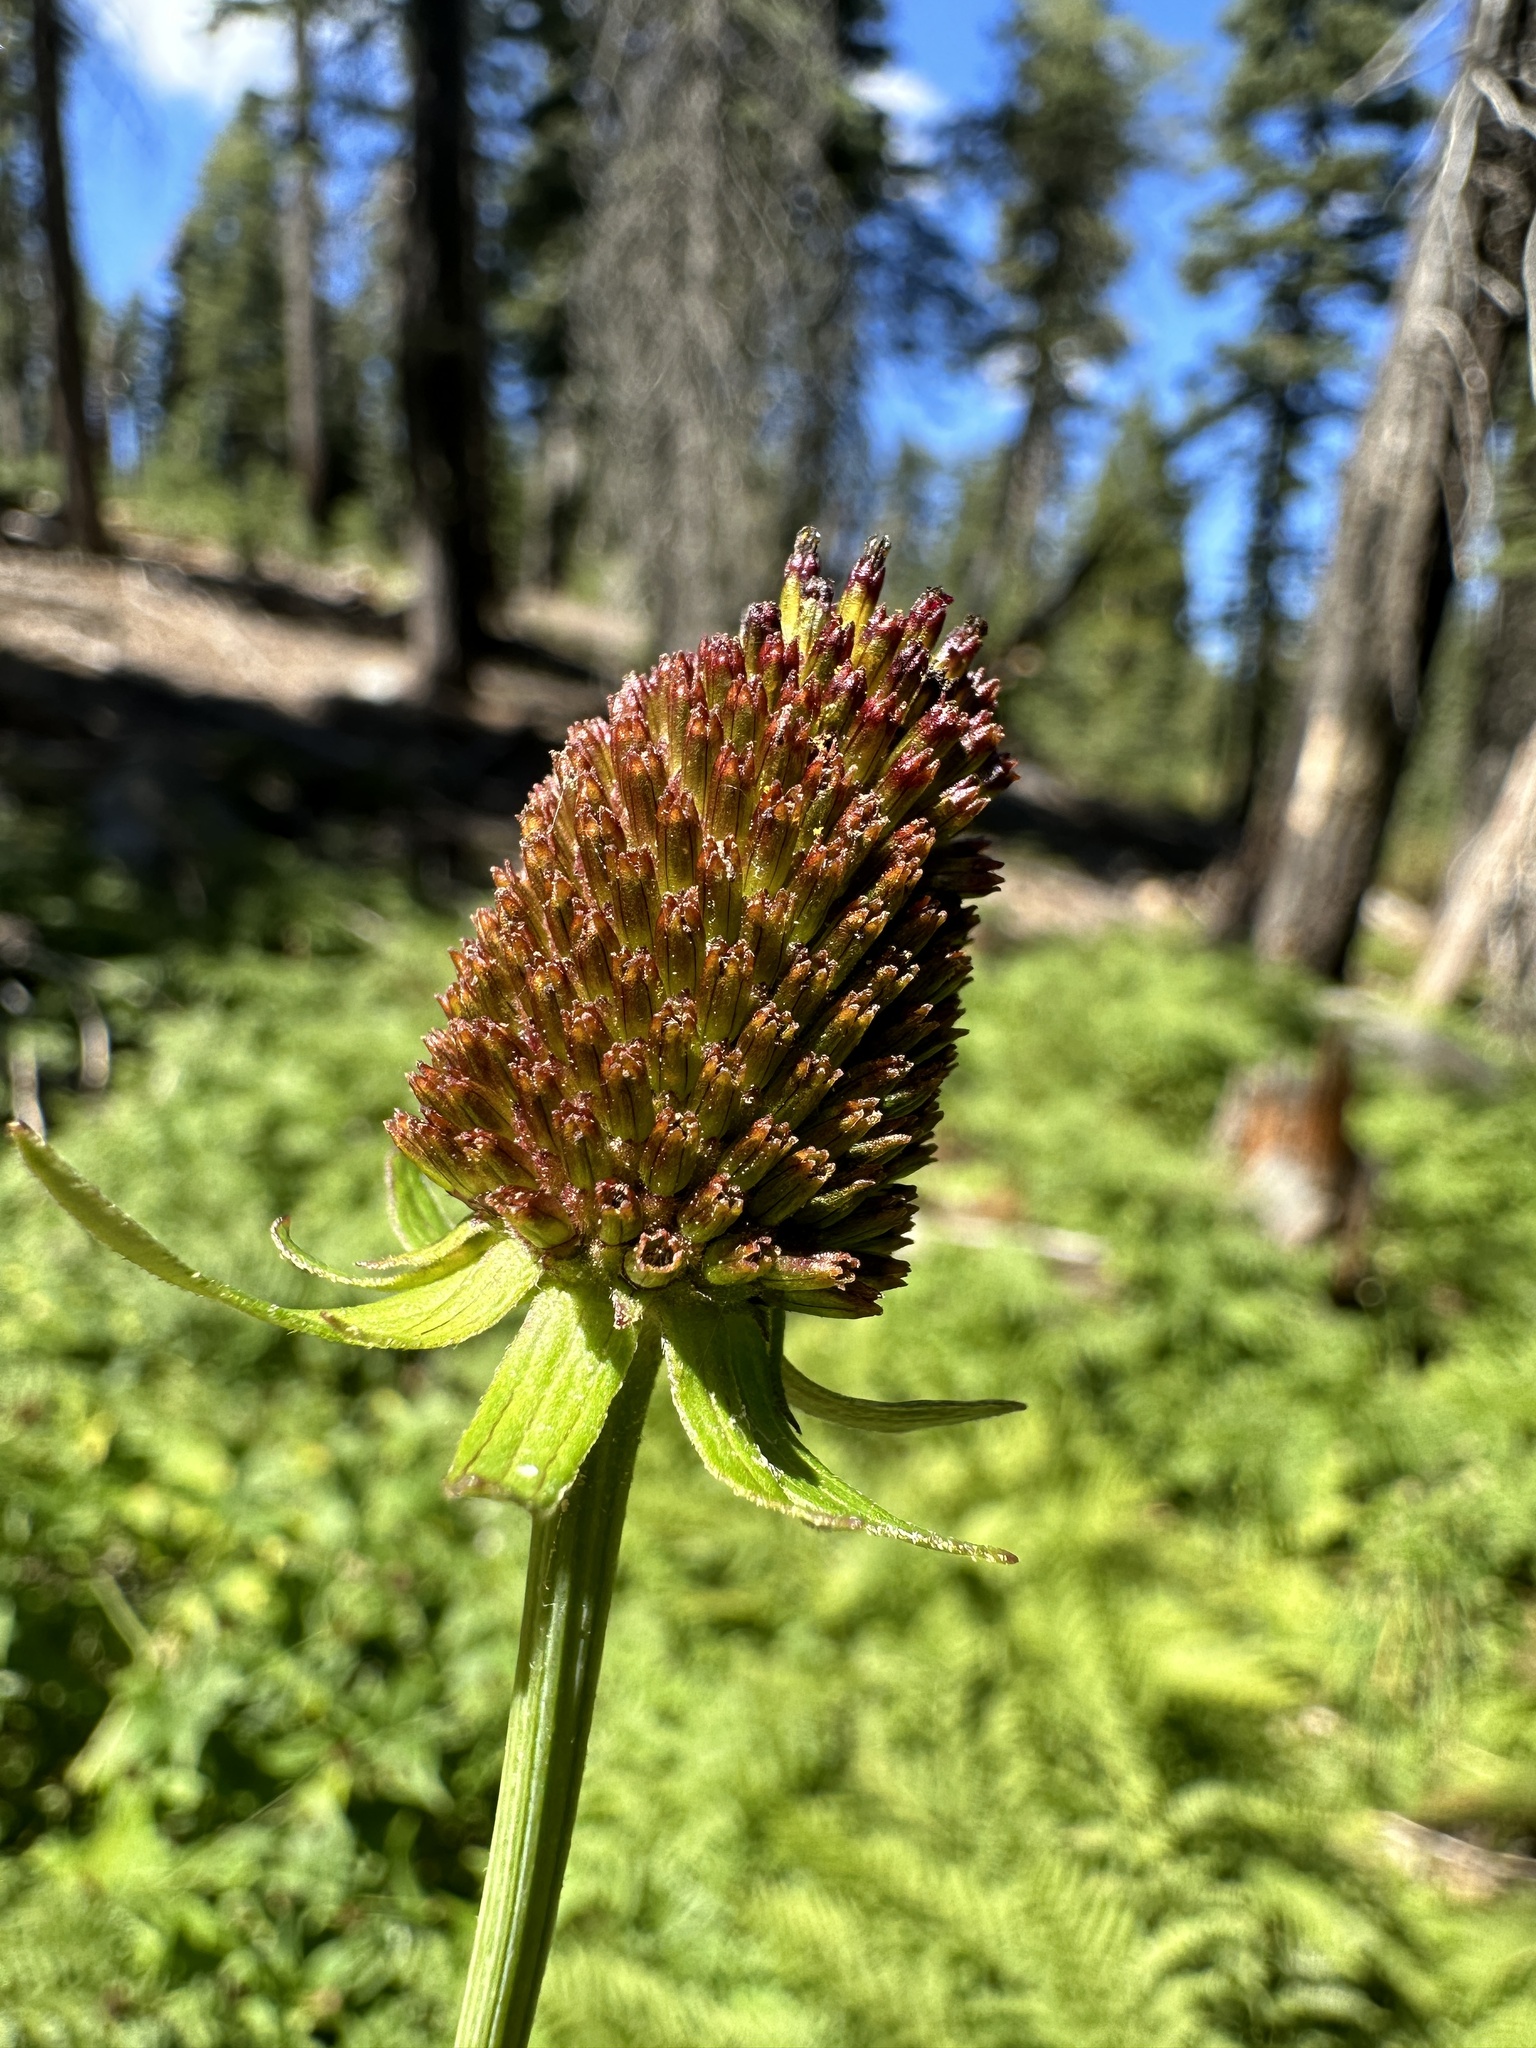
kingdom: Plantae
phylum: Tracheophyta
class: Magnoliopsida
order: Asterales
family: Asteraceae
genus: Rudbeckia
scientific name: Rudbeckia occidentalis
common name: Western coneflower
